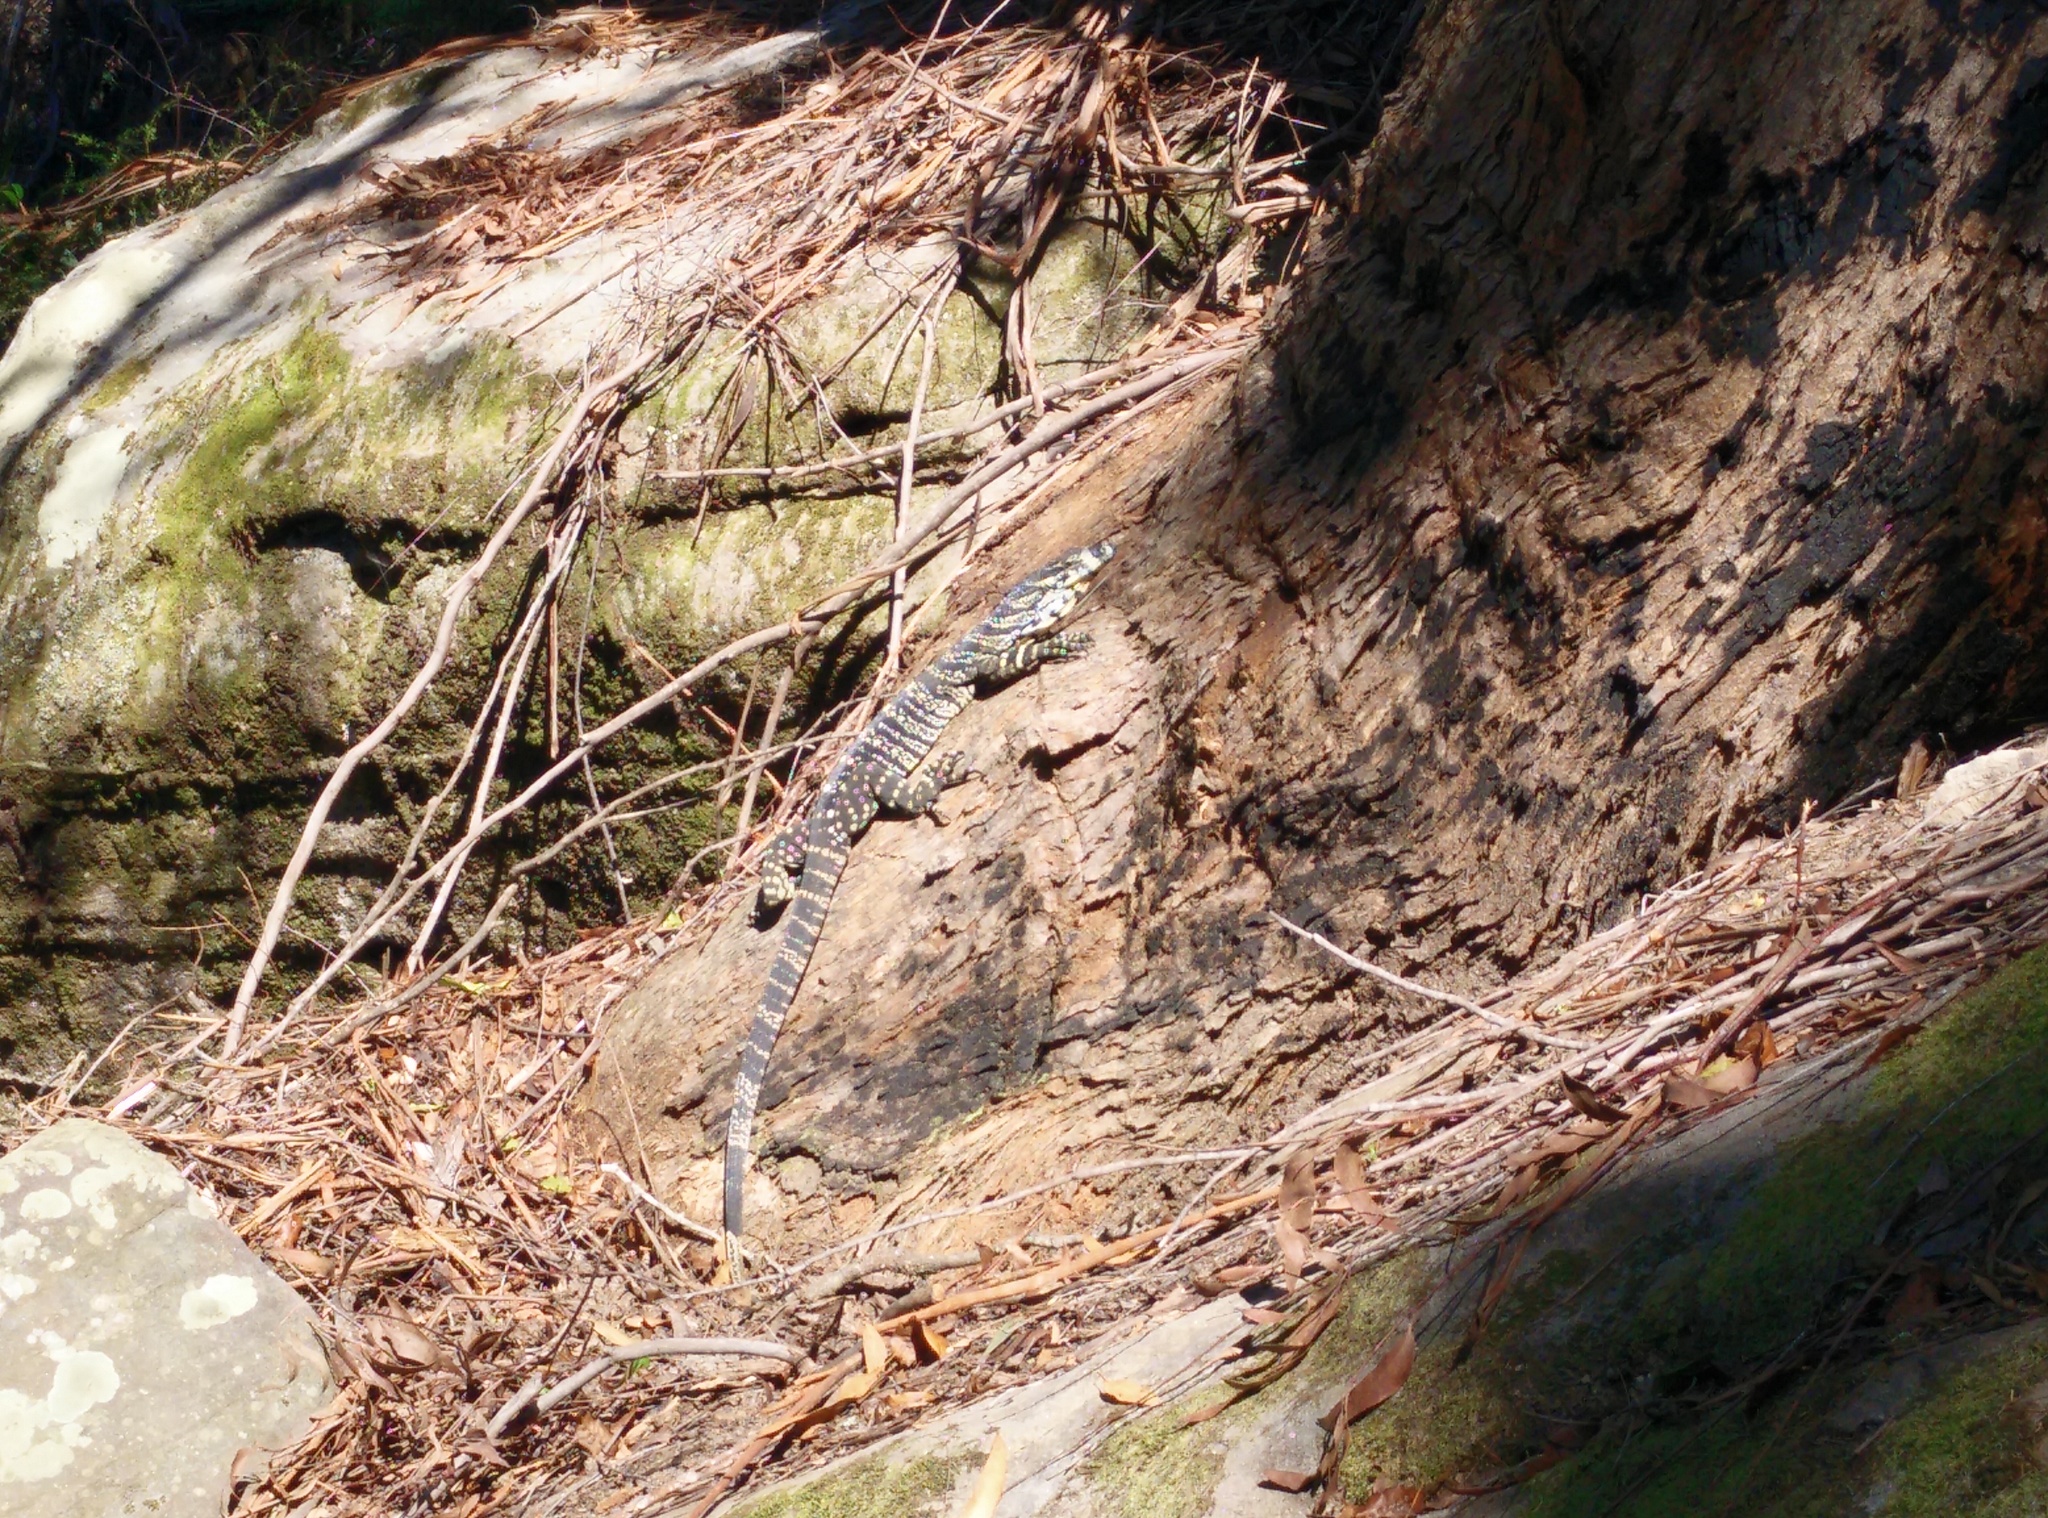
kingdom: Animalia
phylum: Chordata
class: Squamata
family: Varanidae
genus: Varanus
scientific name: Varanus varius
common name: Lace monitor
